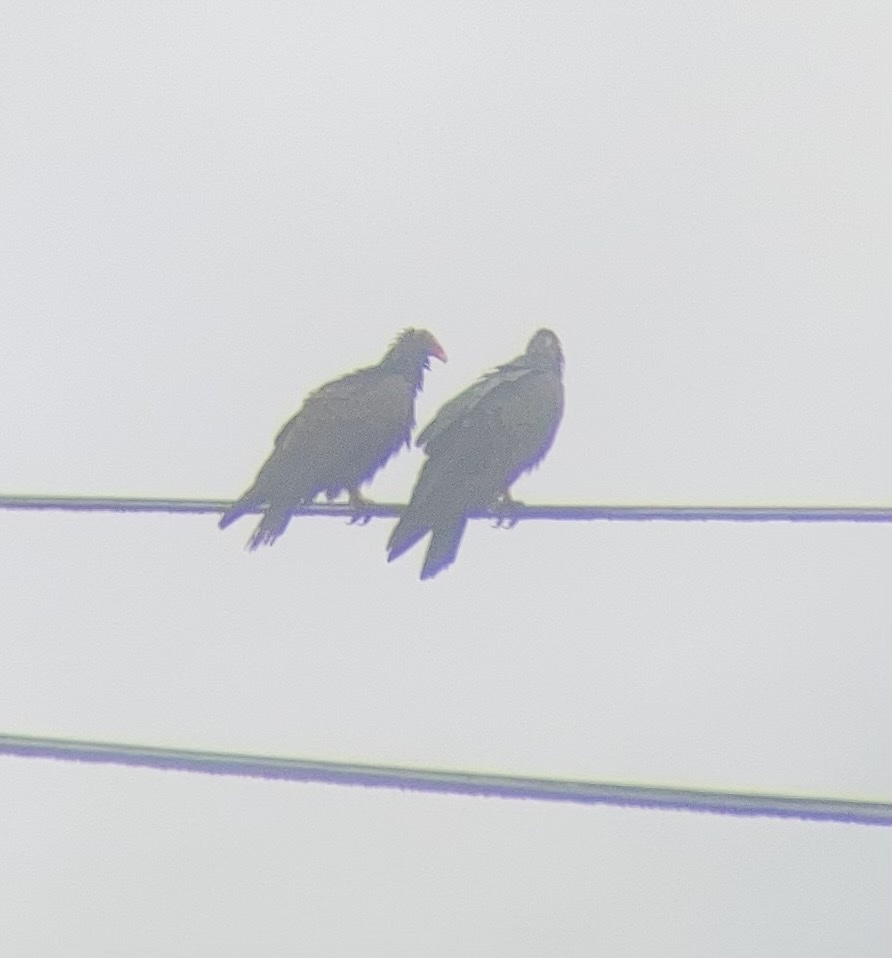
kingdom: Animalia
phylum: Chordata
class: Aves
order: Accipitriformes
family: Cathartidae
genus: Cathartes
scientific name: Cathartes aura
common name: Turkey vulture
